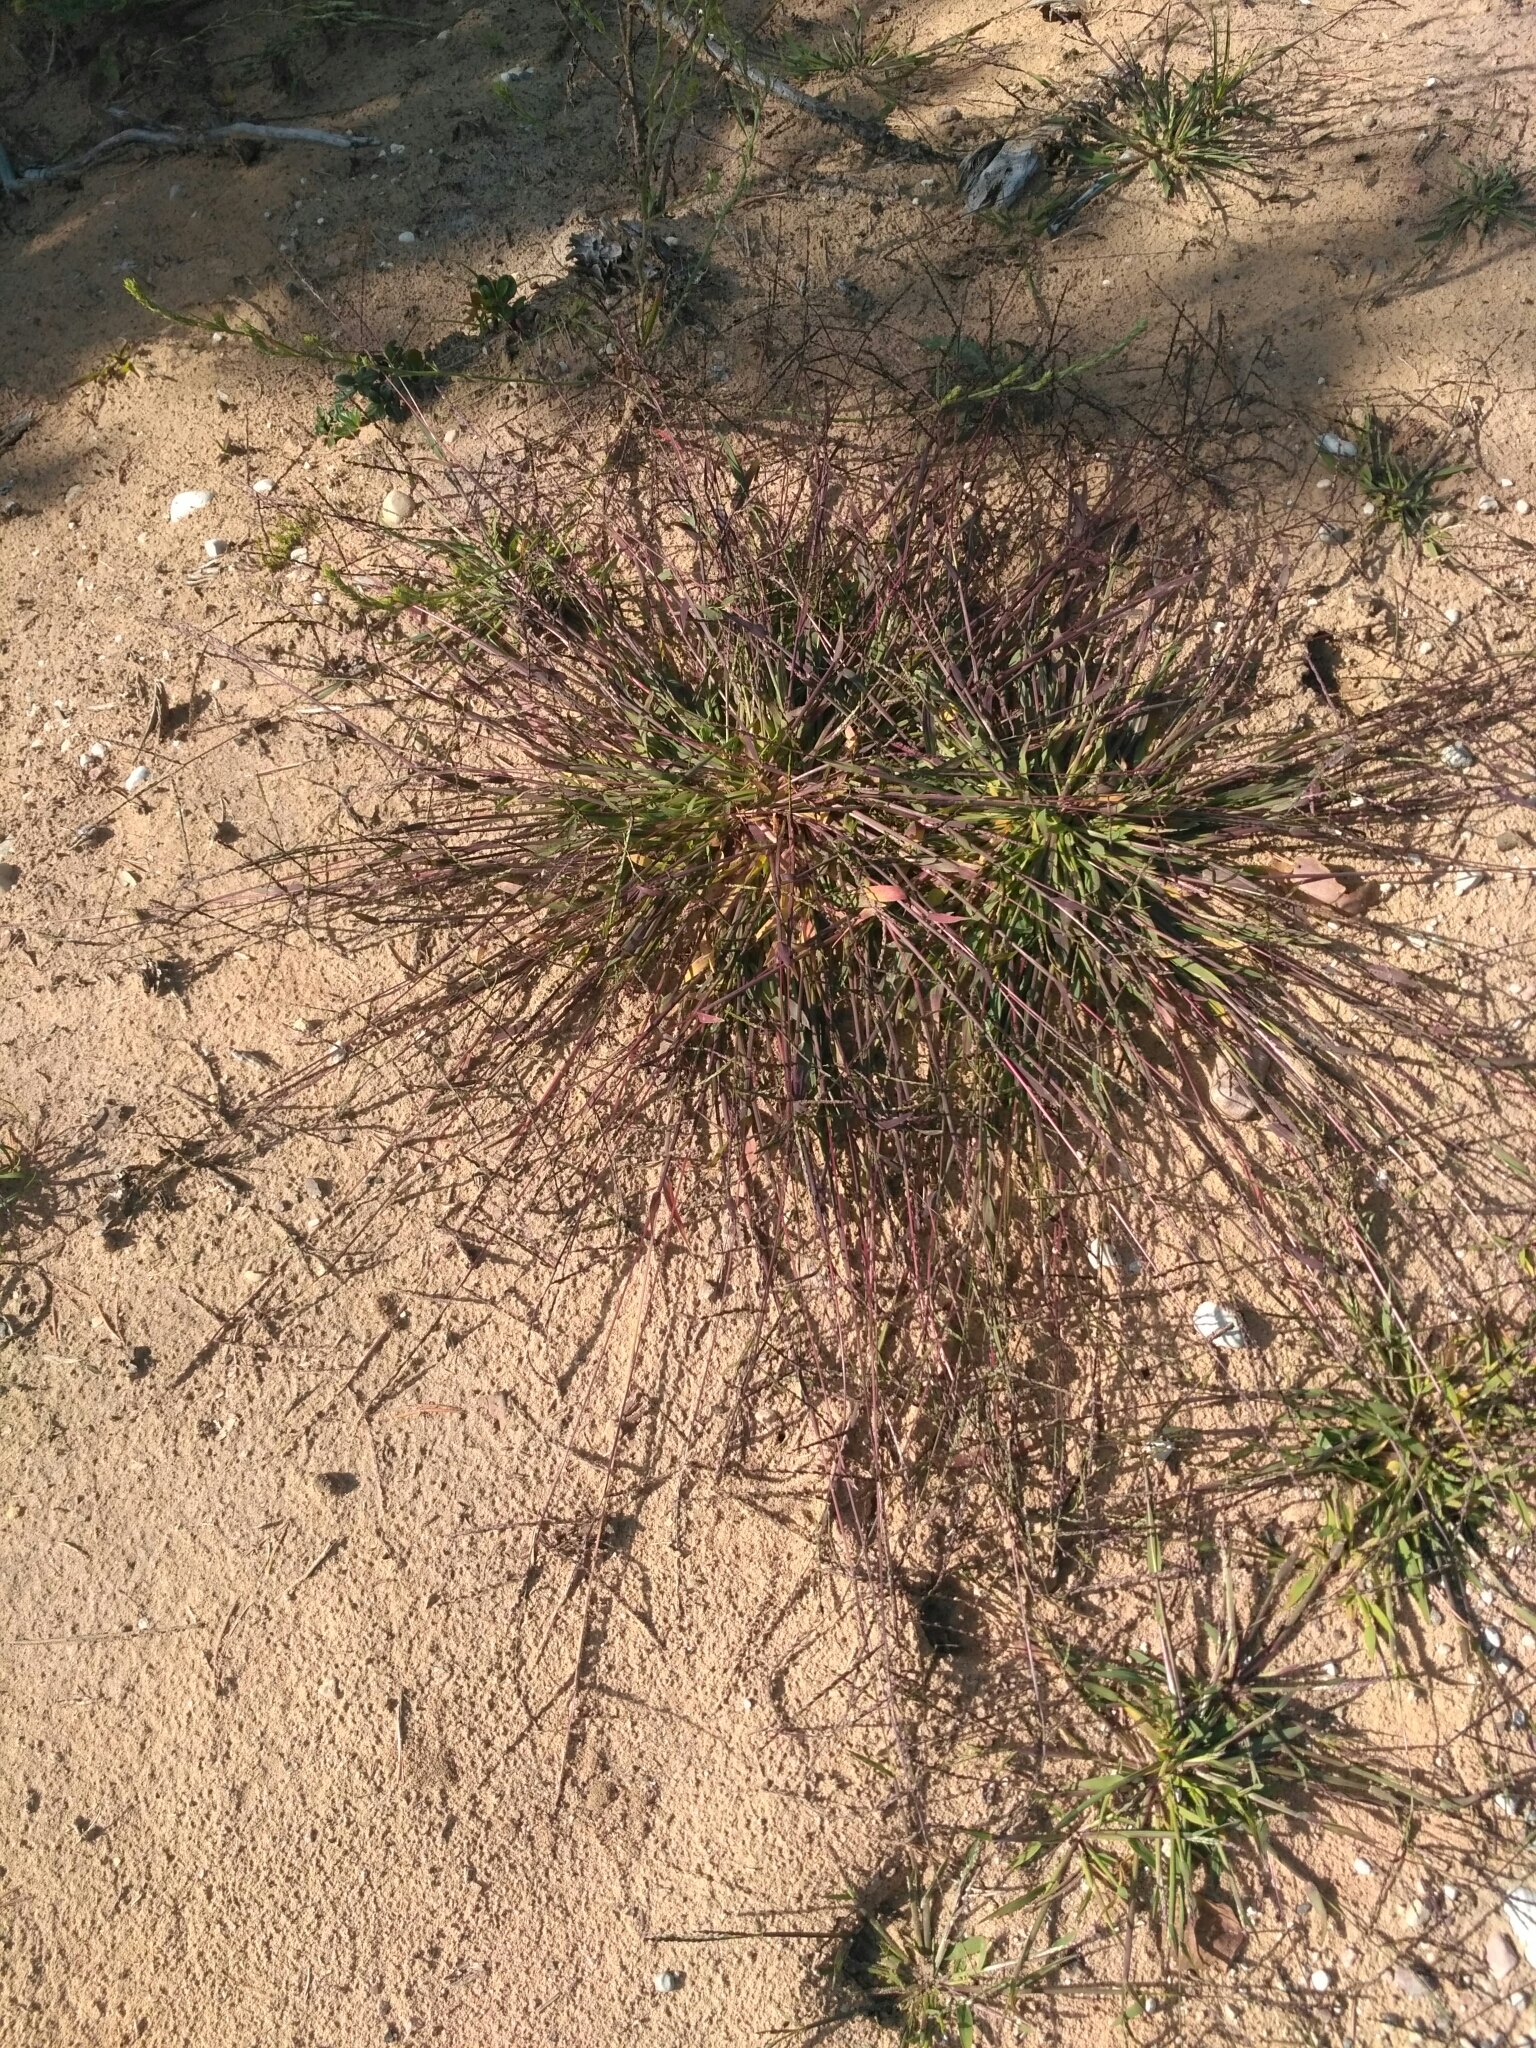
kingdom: Plantae
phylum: Tracheophyta
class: Liliopsida
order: Poales
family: Poaceae
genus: Digitaria
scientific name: Digitaria ischaemum
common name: Smooth crabgrass
